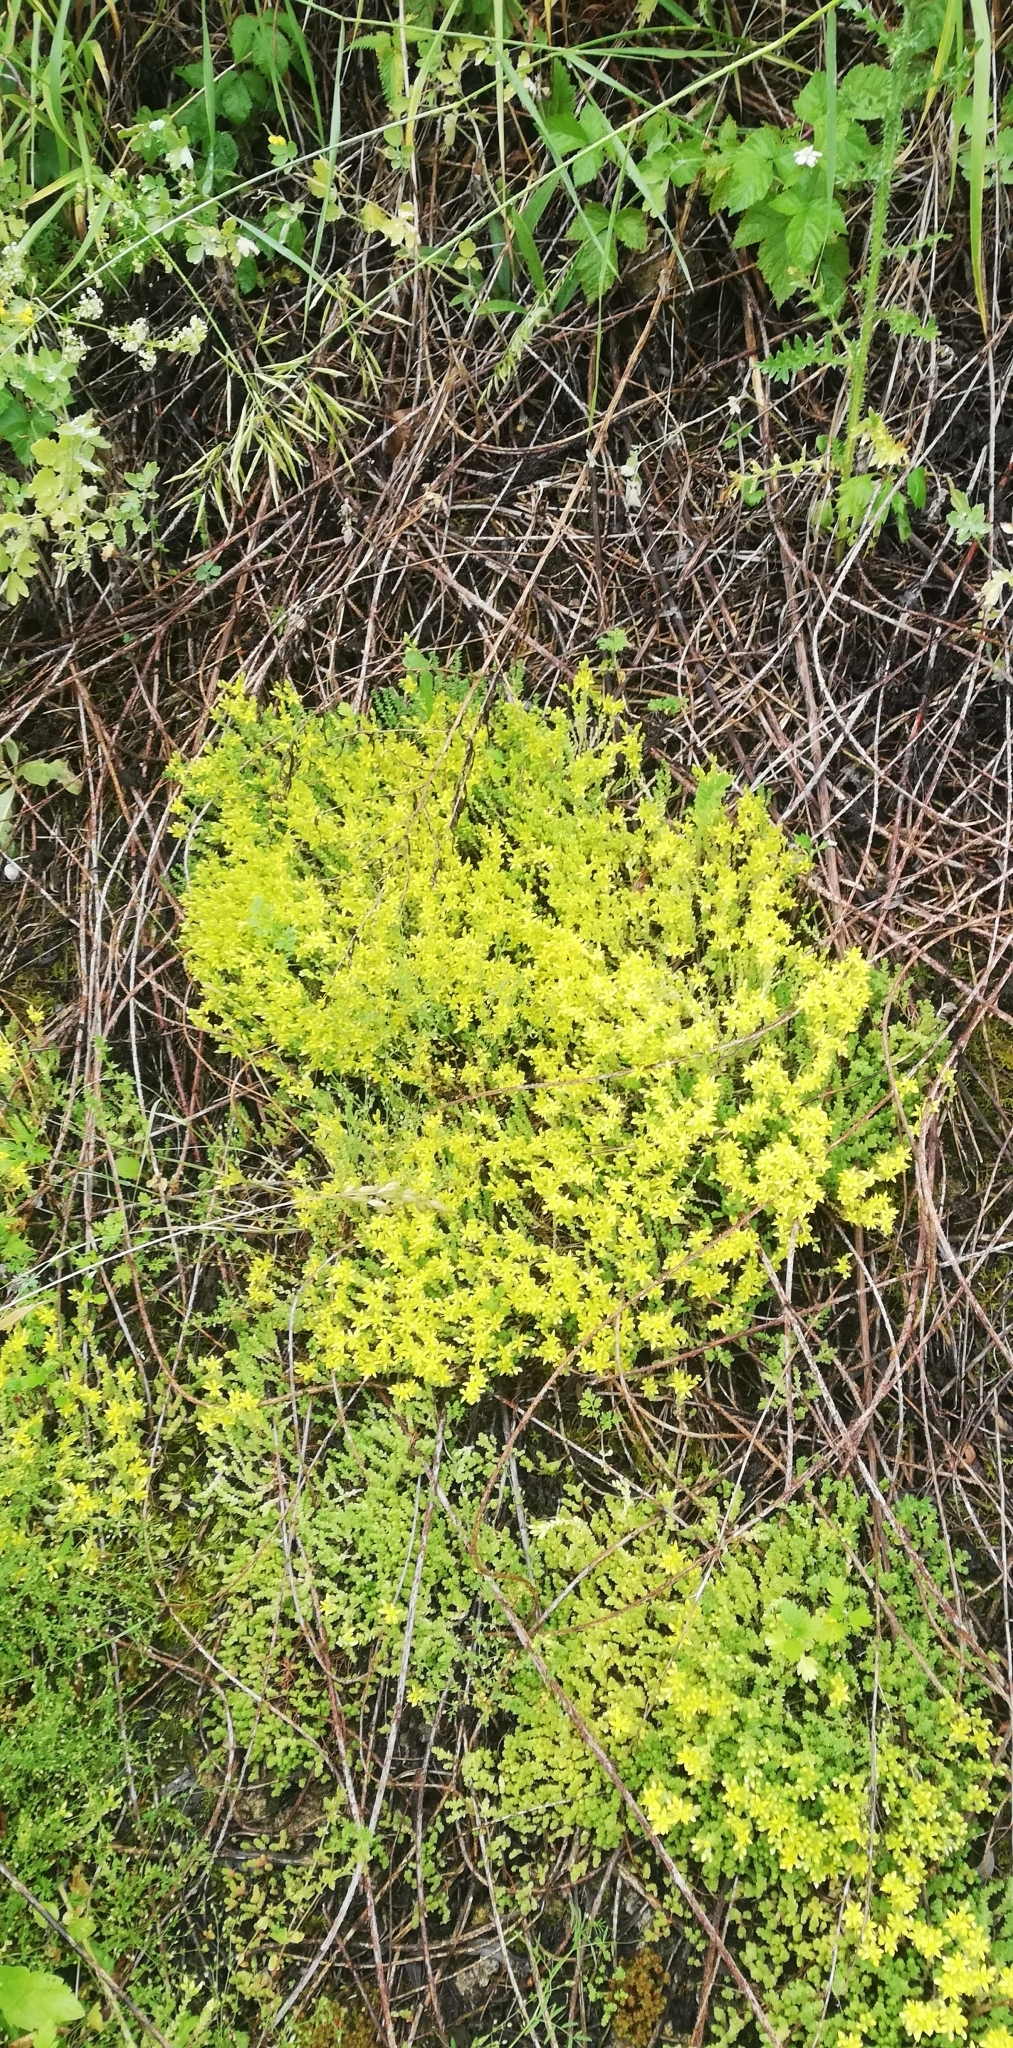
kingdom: Plantae
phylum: Tracheophyta
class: Magnoliopsida
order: Saxifragales
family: Crassulaceae
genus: Sedum
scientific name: Sedum acre
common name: Biting stonecrop
